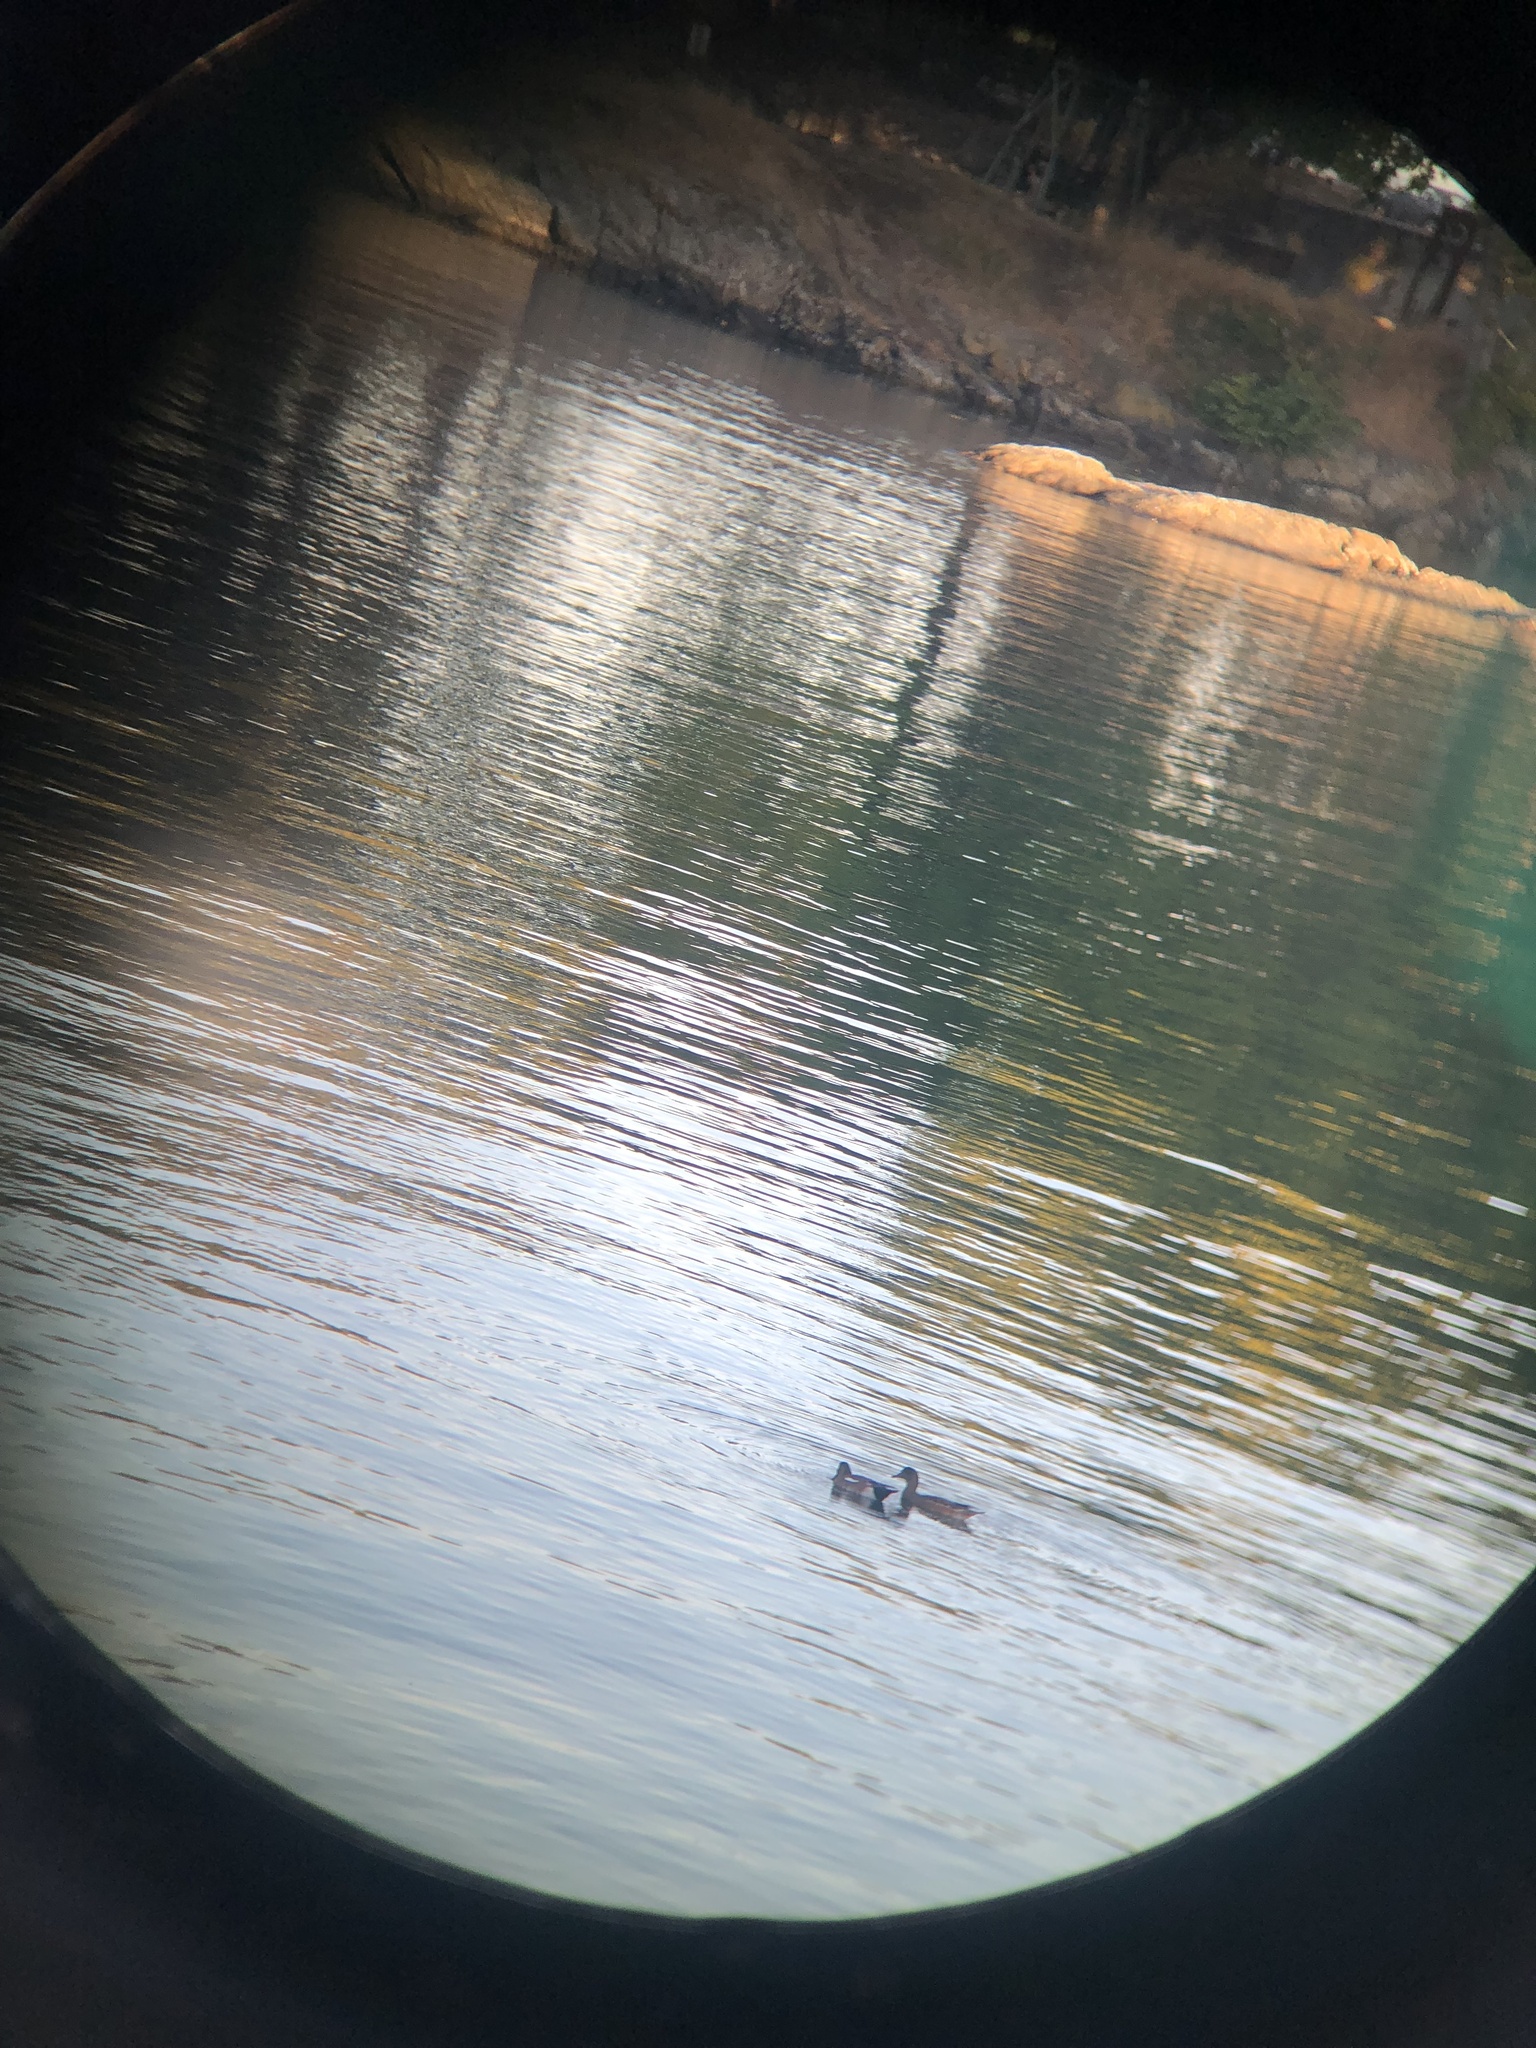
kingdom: Animalia
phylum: Chordata
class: Aves
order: Anseriformes
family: Anatidae
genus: Mareca
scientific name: Mareca americana
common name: American wigeon
